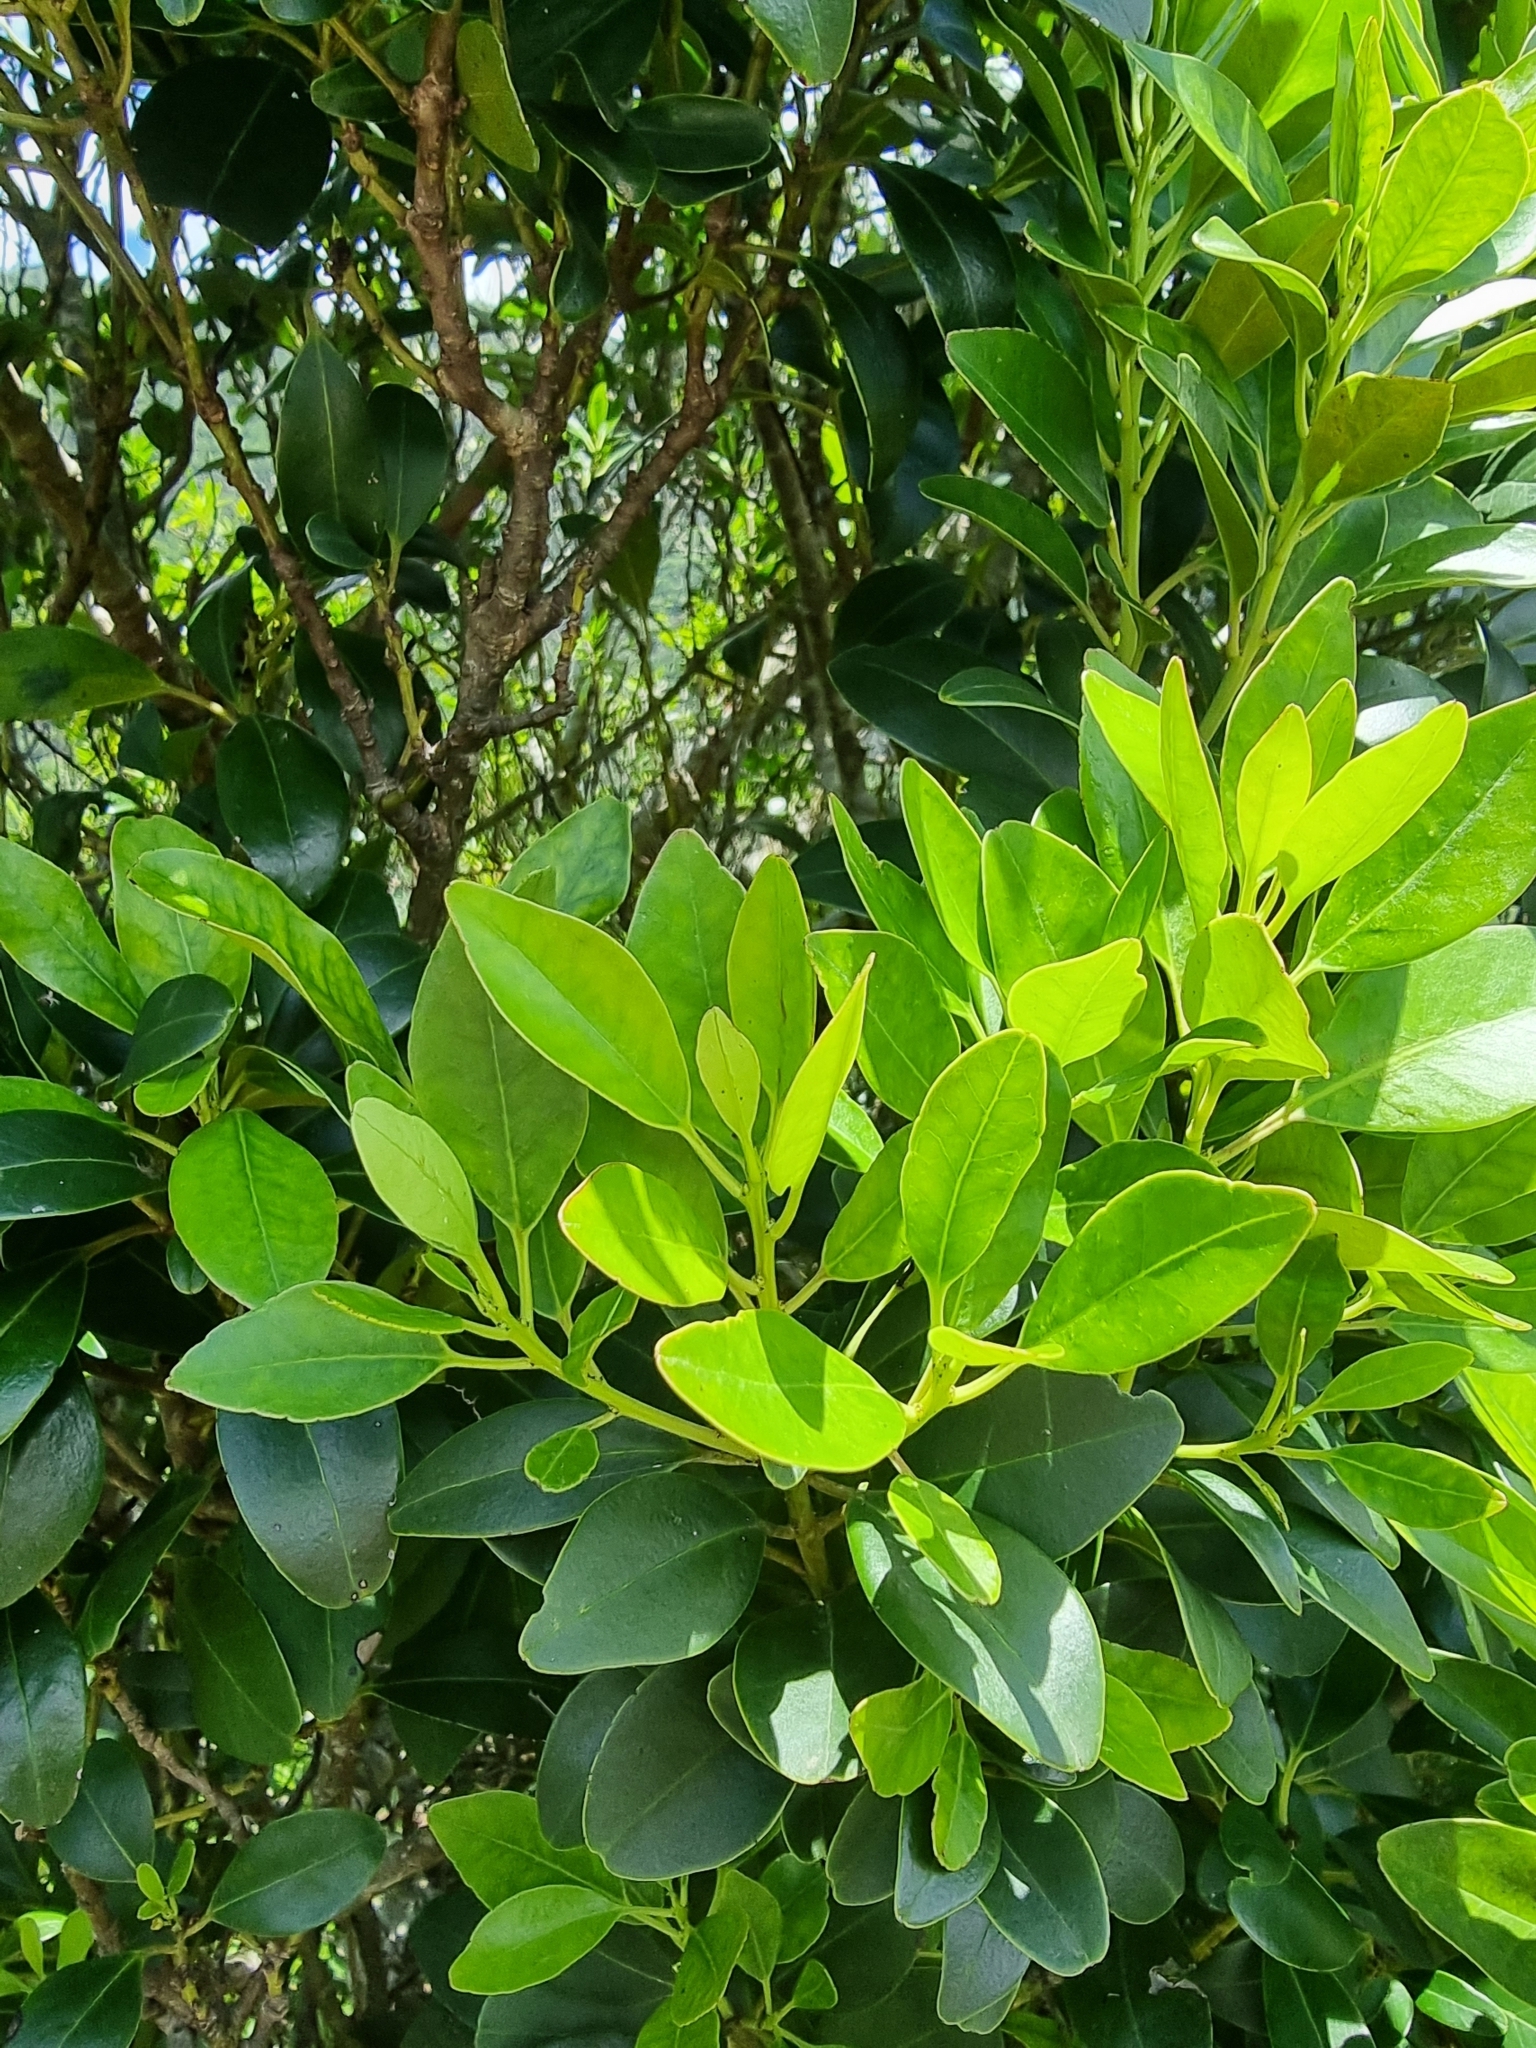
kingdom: Plantae
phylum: Tracheophyta
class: Magnoliopsida
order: Aquifoliales
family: Aquifoliaceae
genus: Ilex
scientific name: Ilex canariensis
